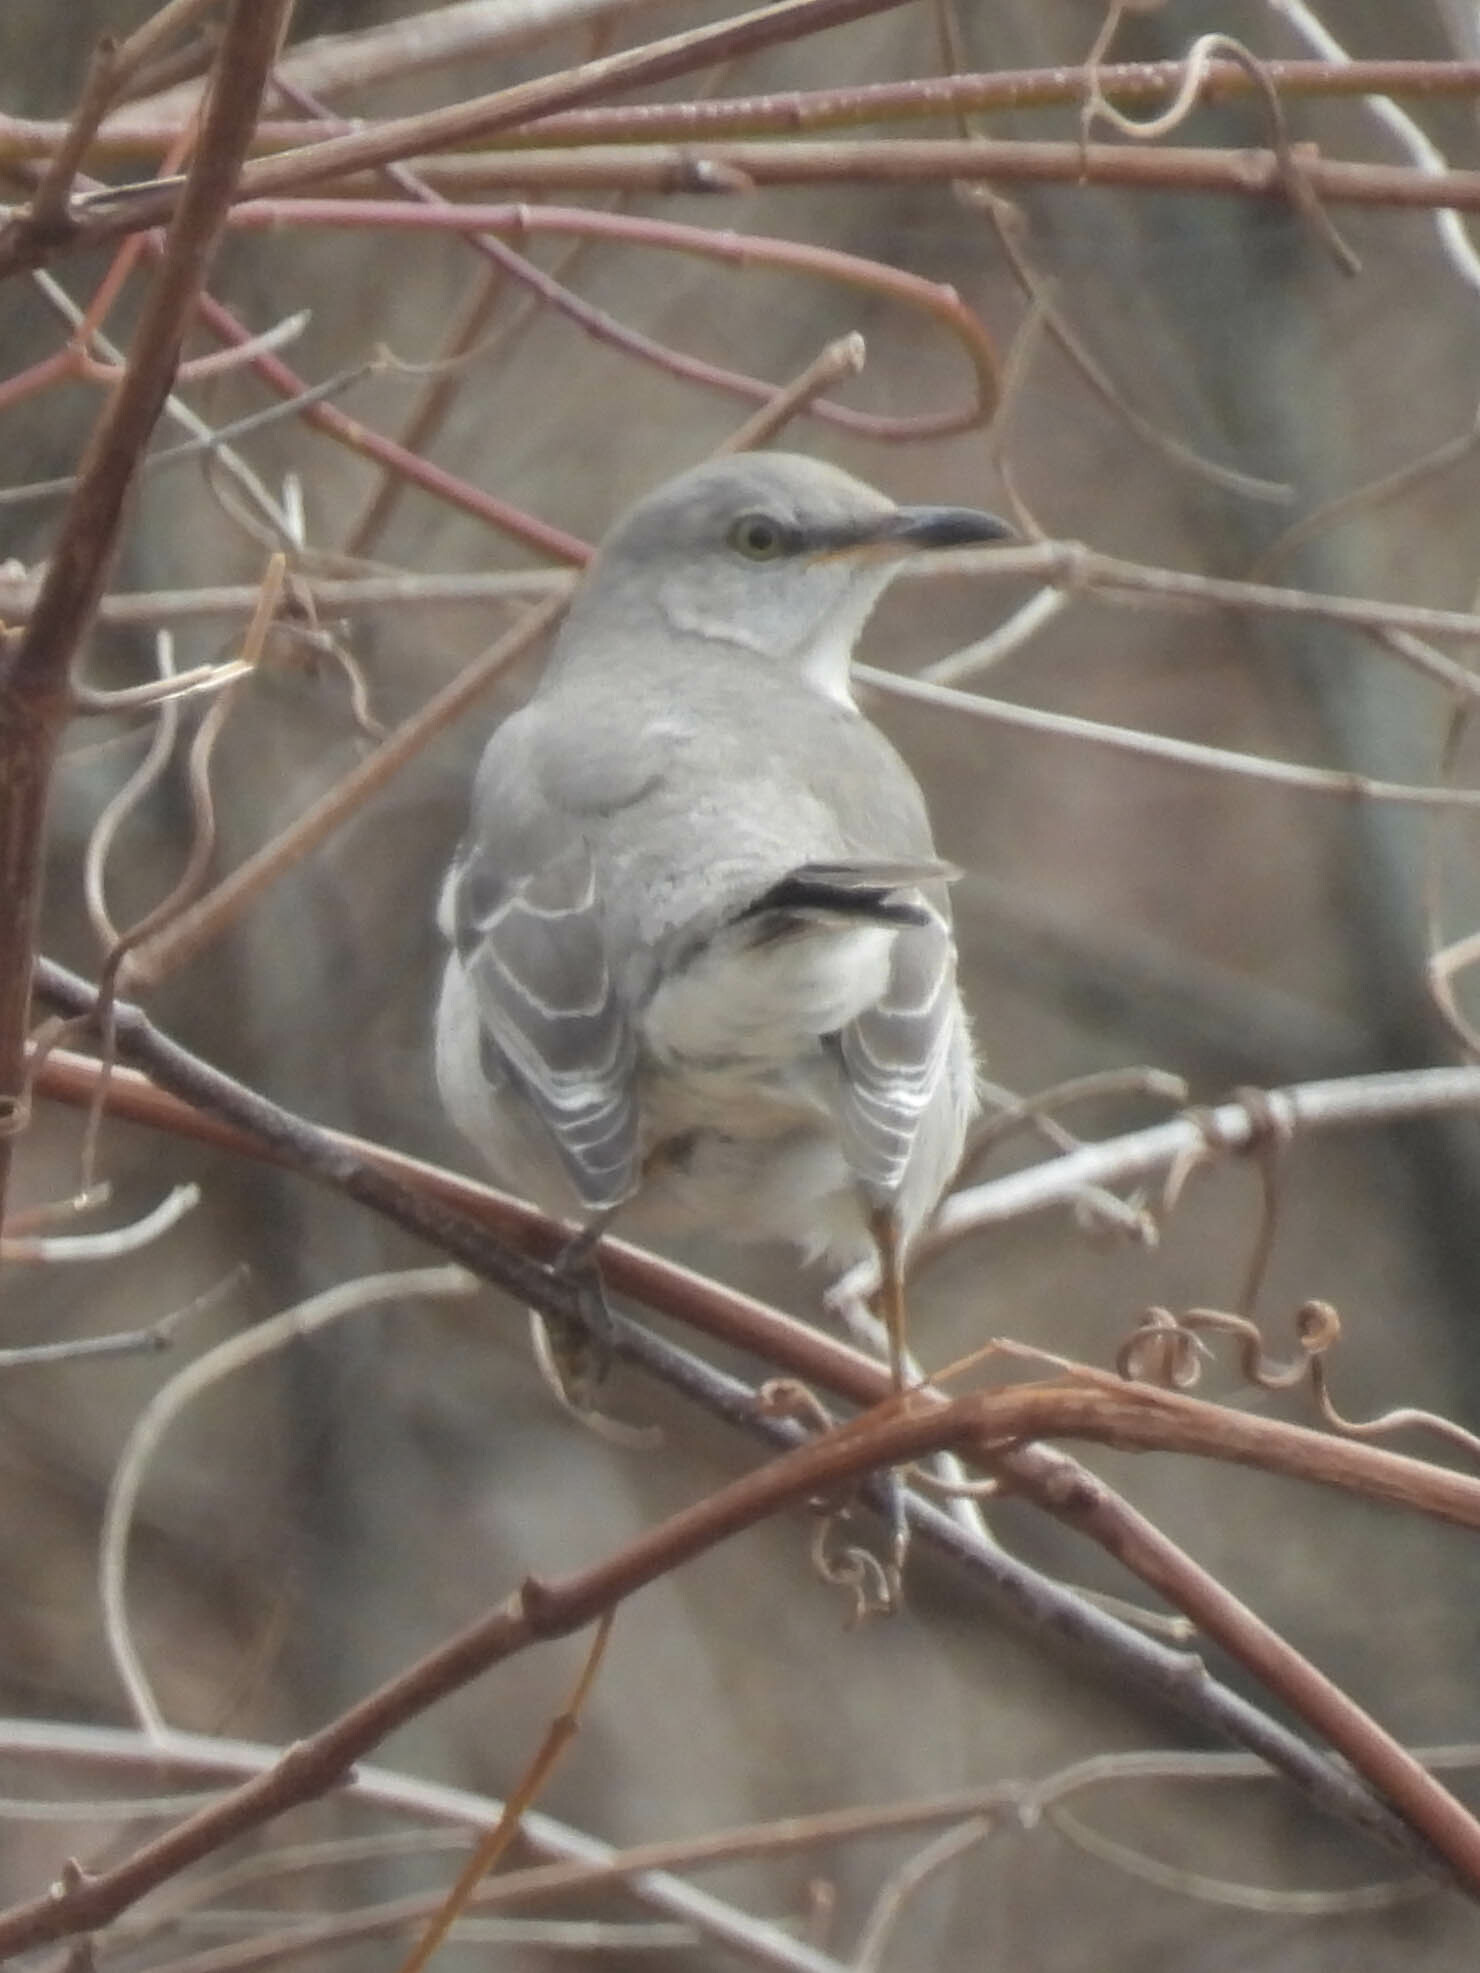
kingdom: Animalia
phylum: Chordata
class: Aves
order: Passeriformes
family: Mimidae
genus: Mimus
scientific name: Mimus polyglottos
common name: Northern mockingbird
